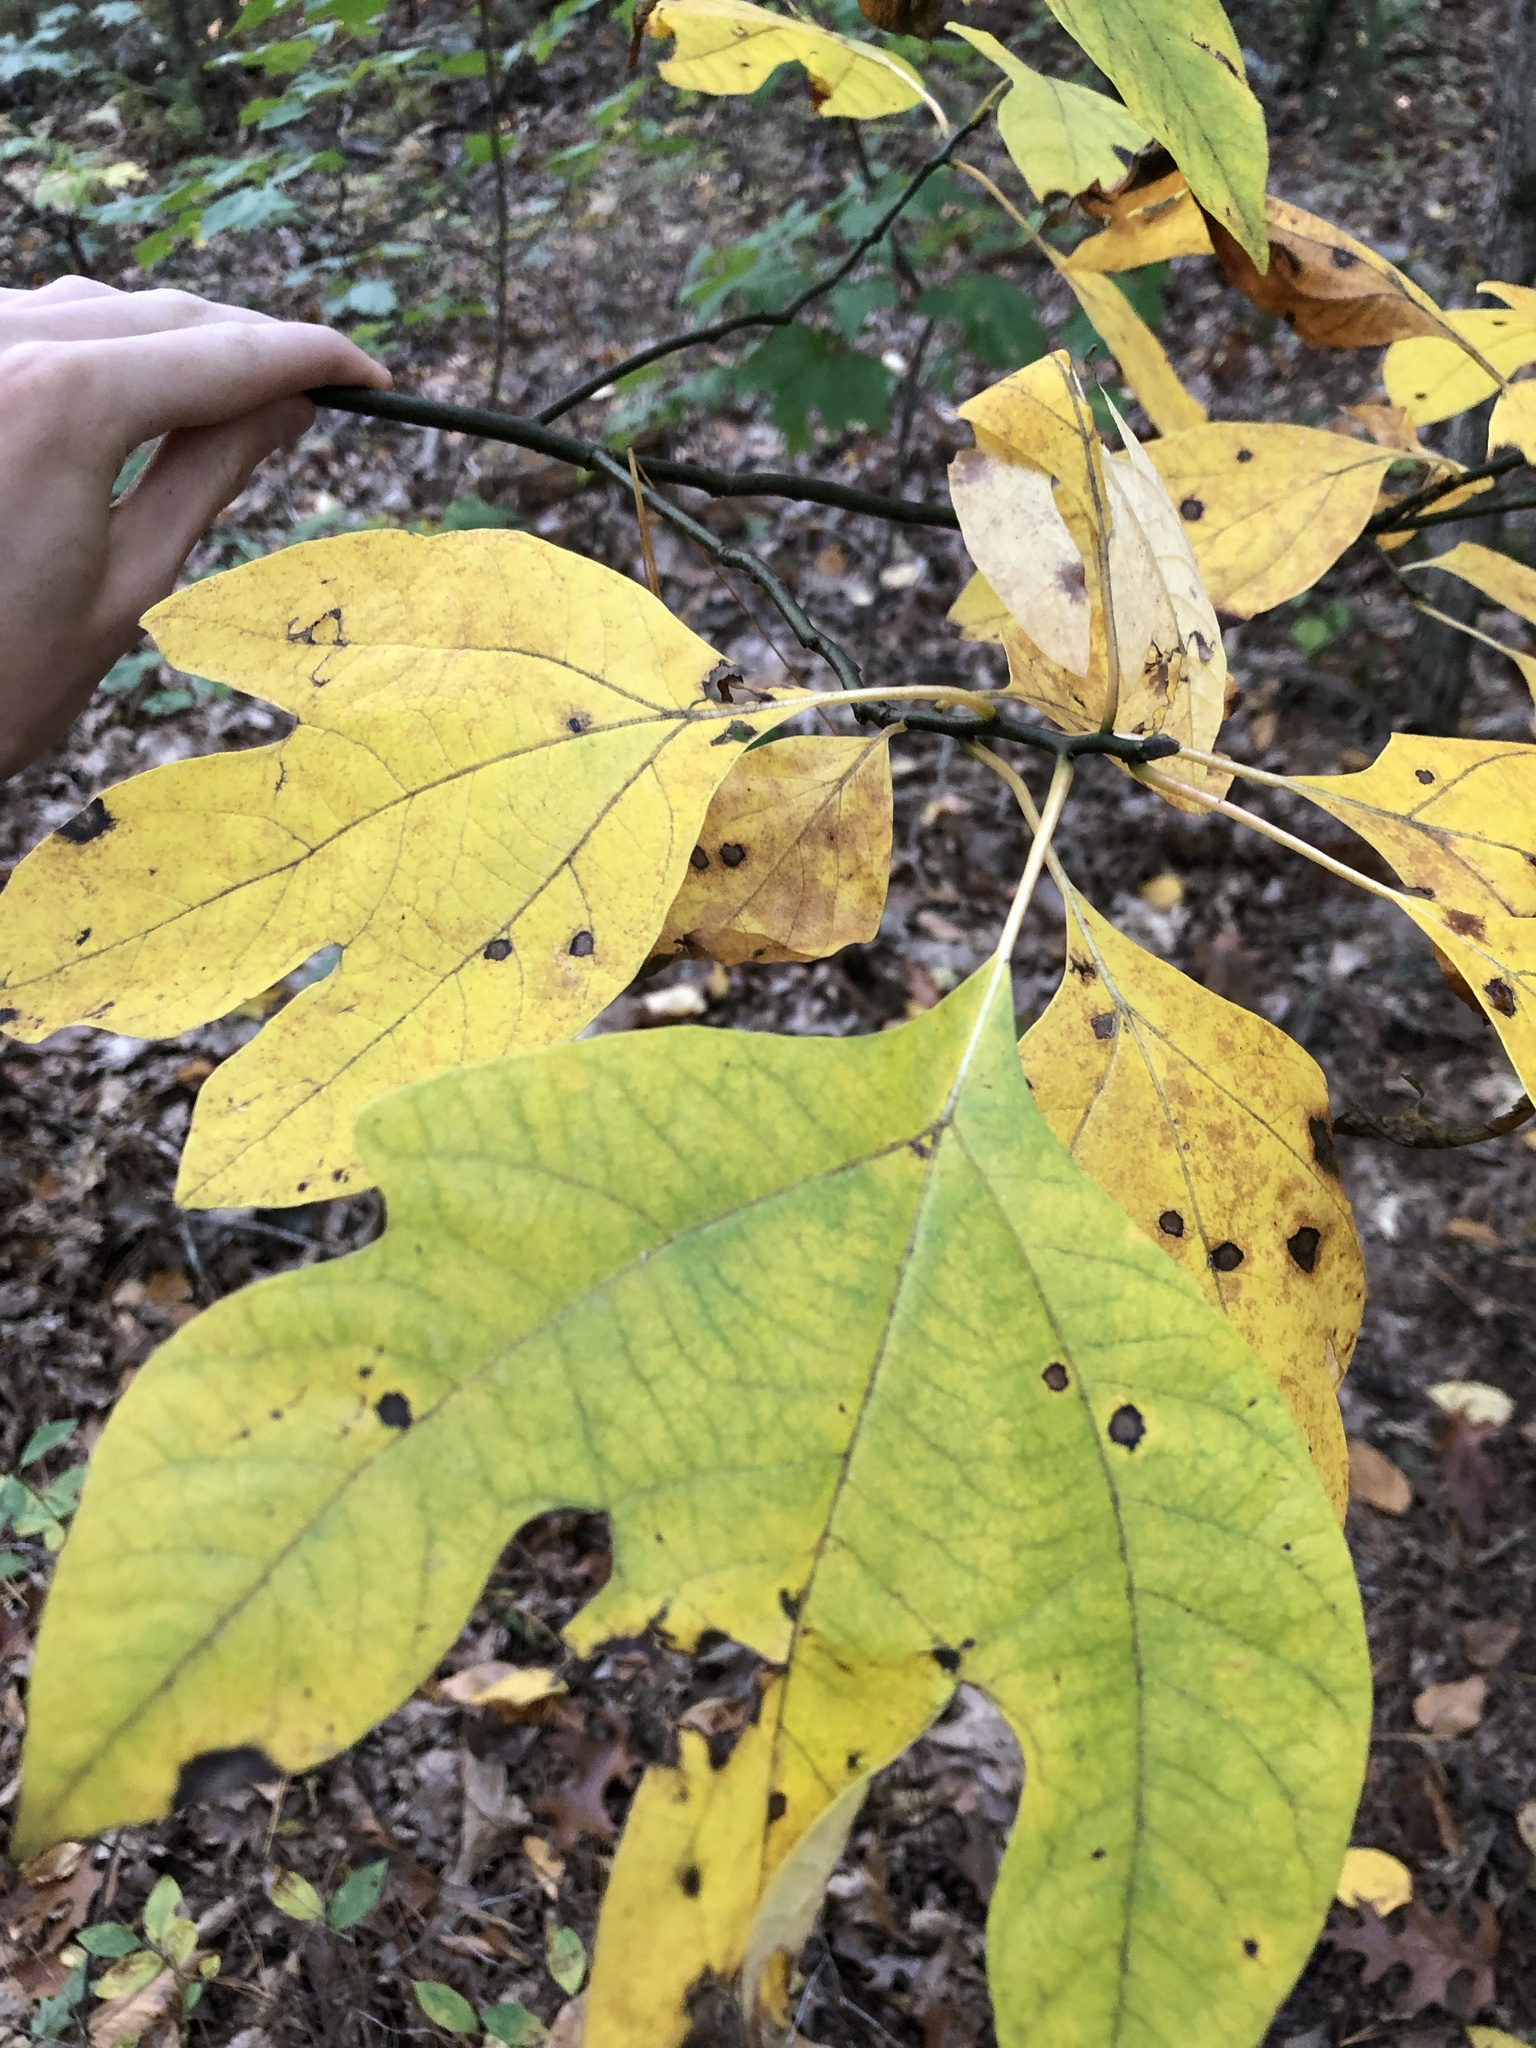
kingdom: Plantae
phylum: Tracheophyta
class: Magnoliopsida
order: Laurales
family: Lauraceae
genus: Sassafras
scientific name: Sassafras albidum
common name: Sassafras
